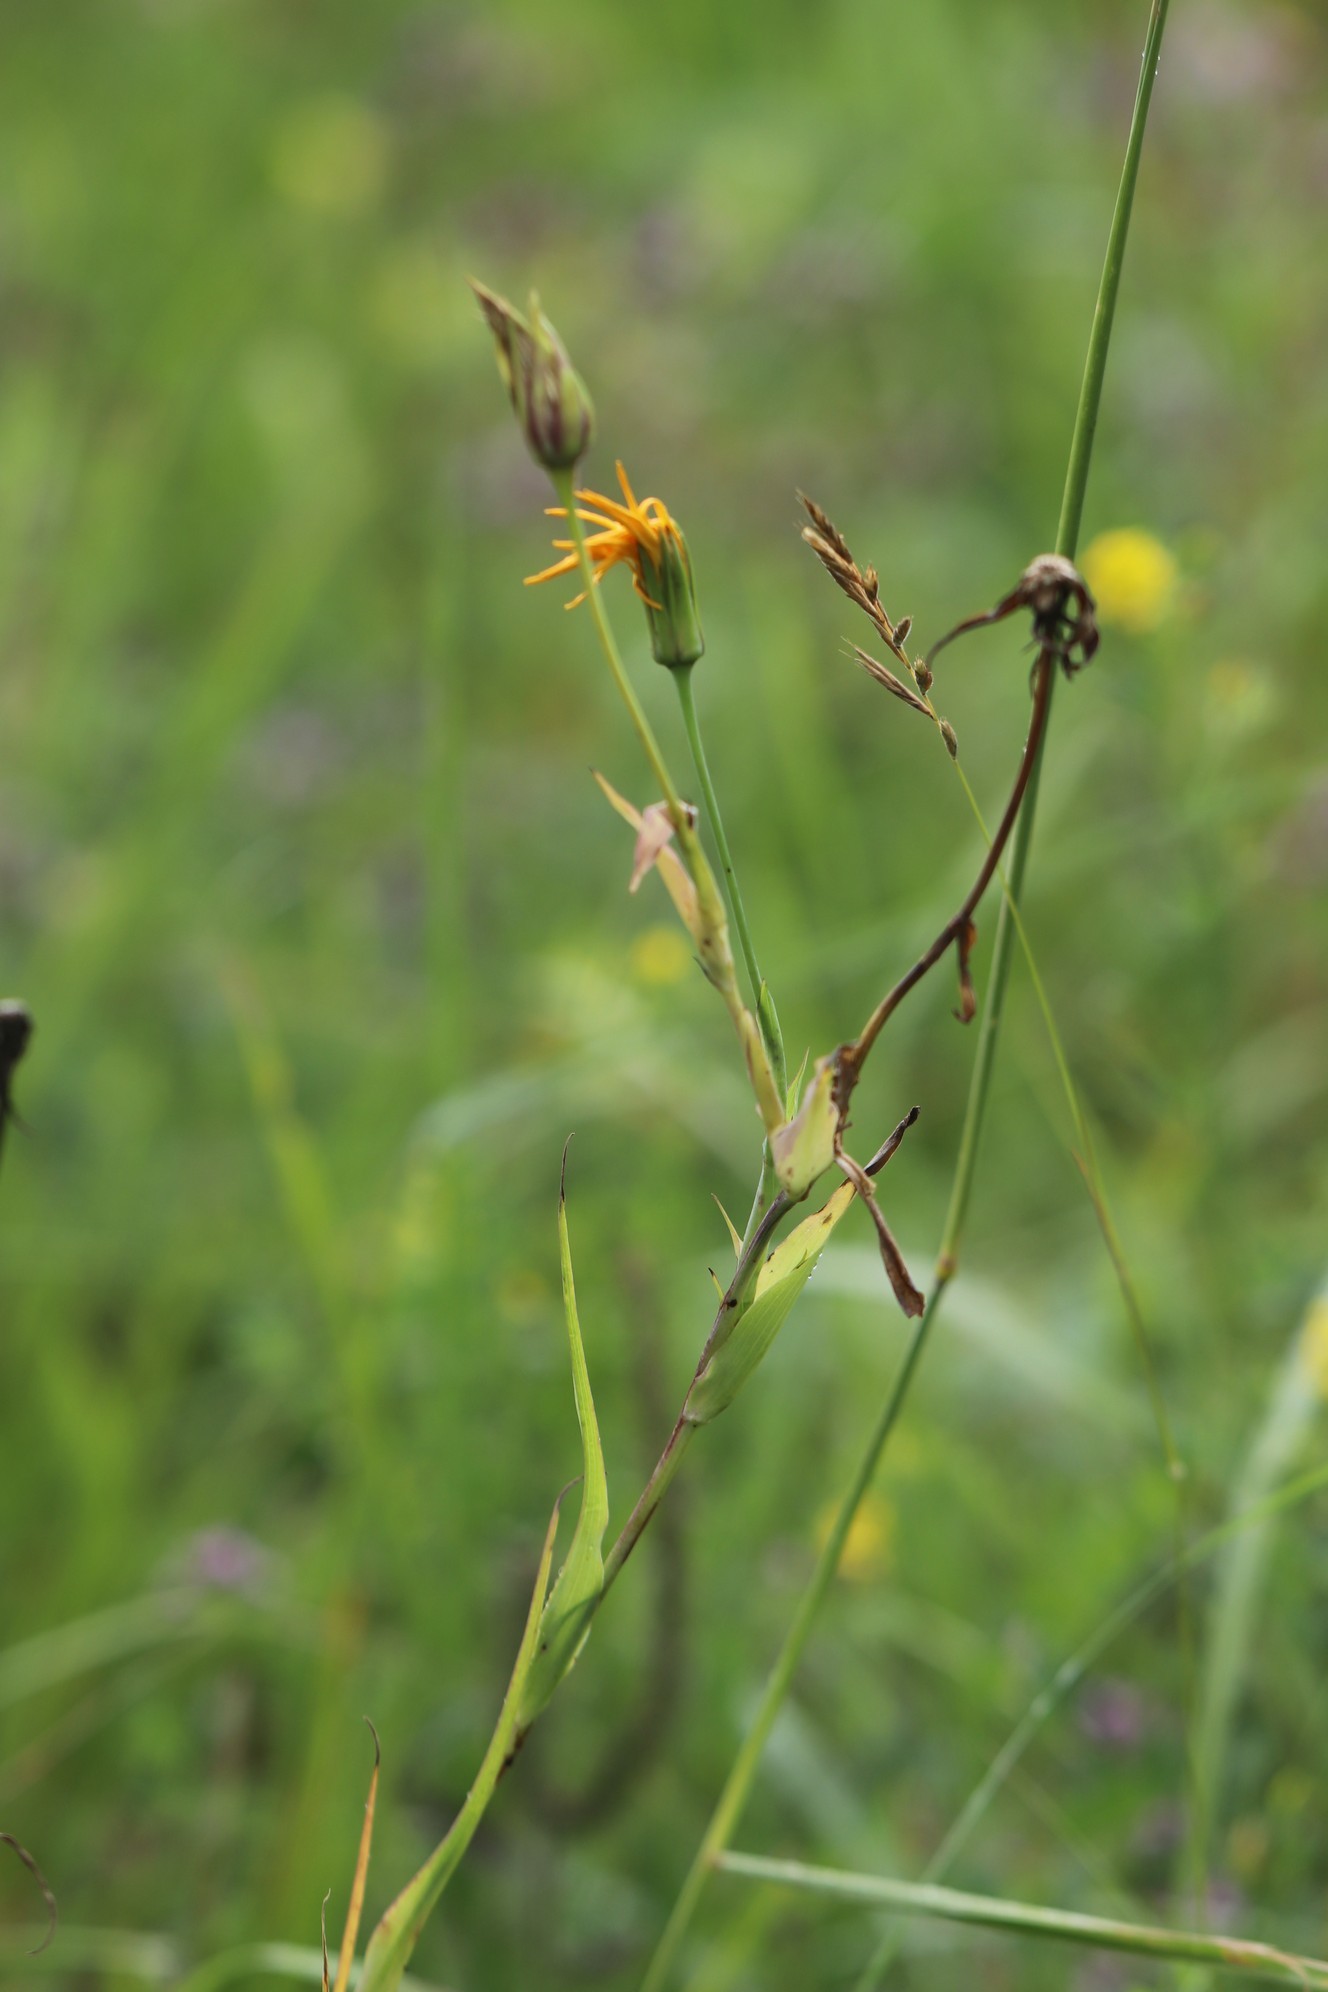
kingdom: Plantae
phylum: Tracheophyta
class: Magnoliopsida
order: Asterales
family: Asteraceae
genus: Tragopogon
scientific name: Tragopogon orientalis
